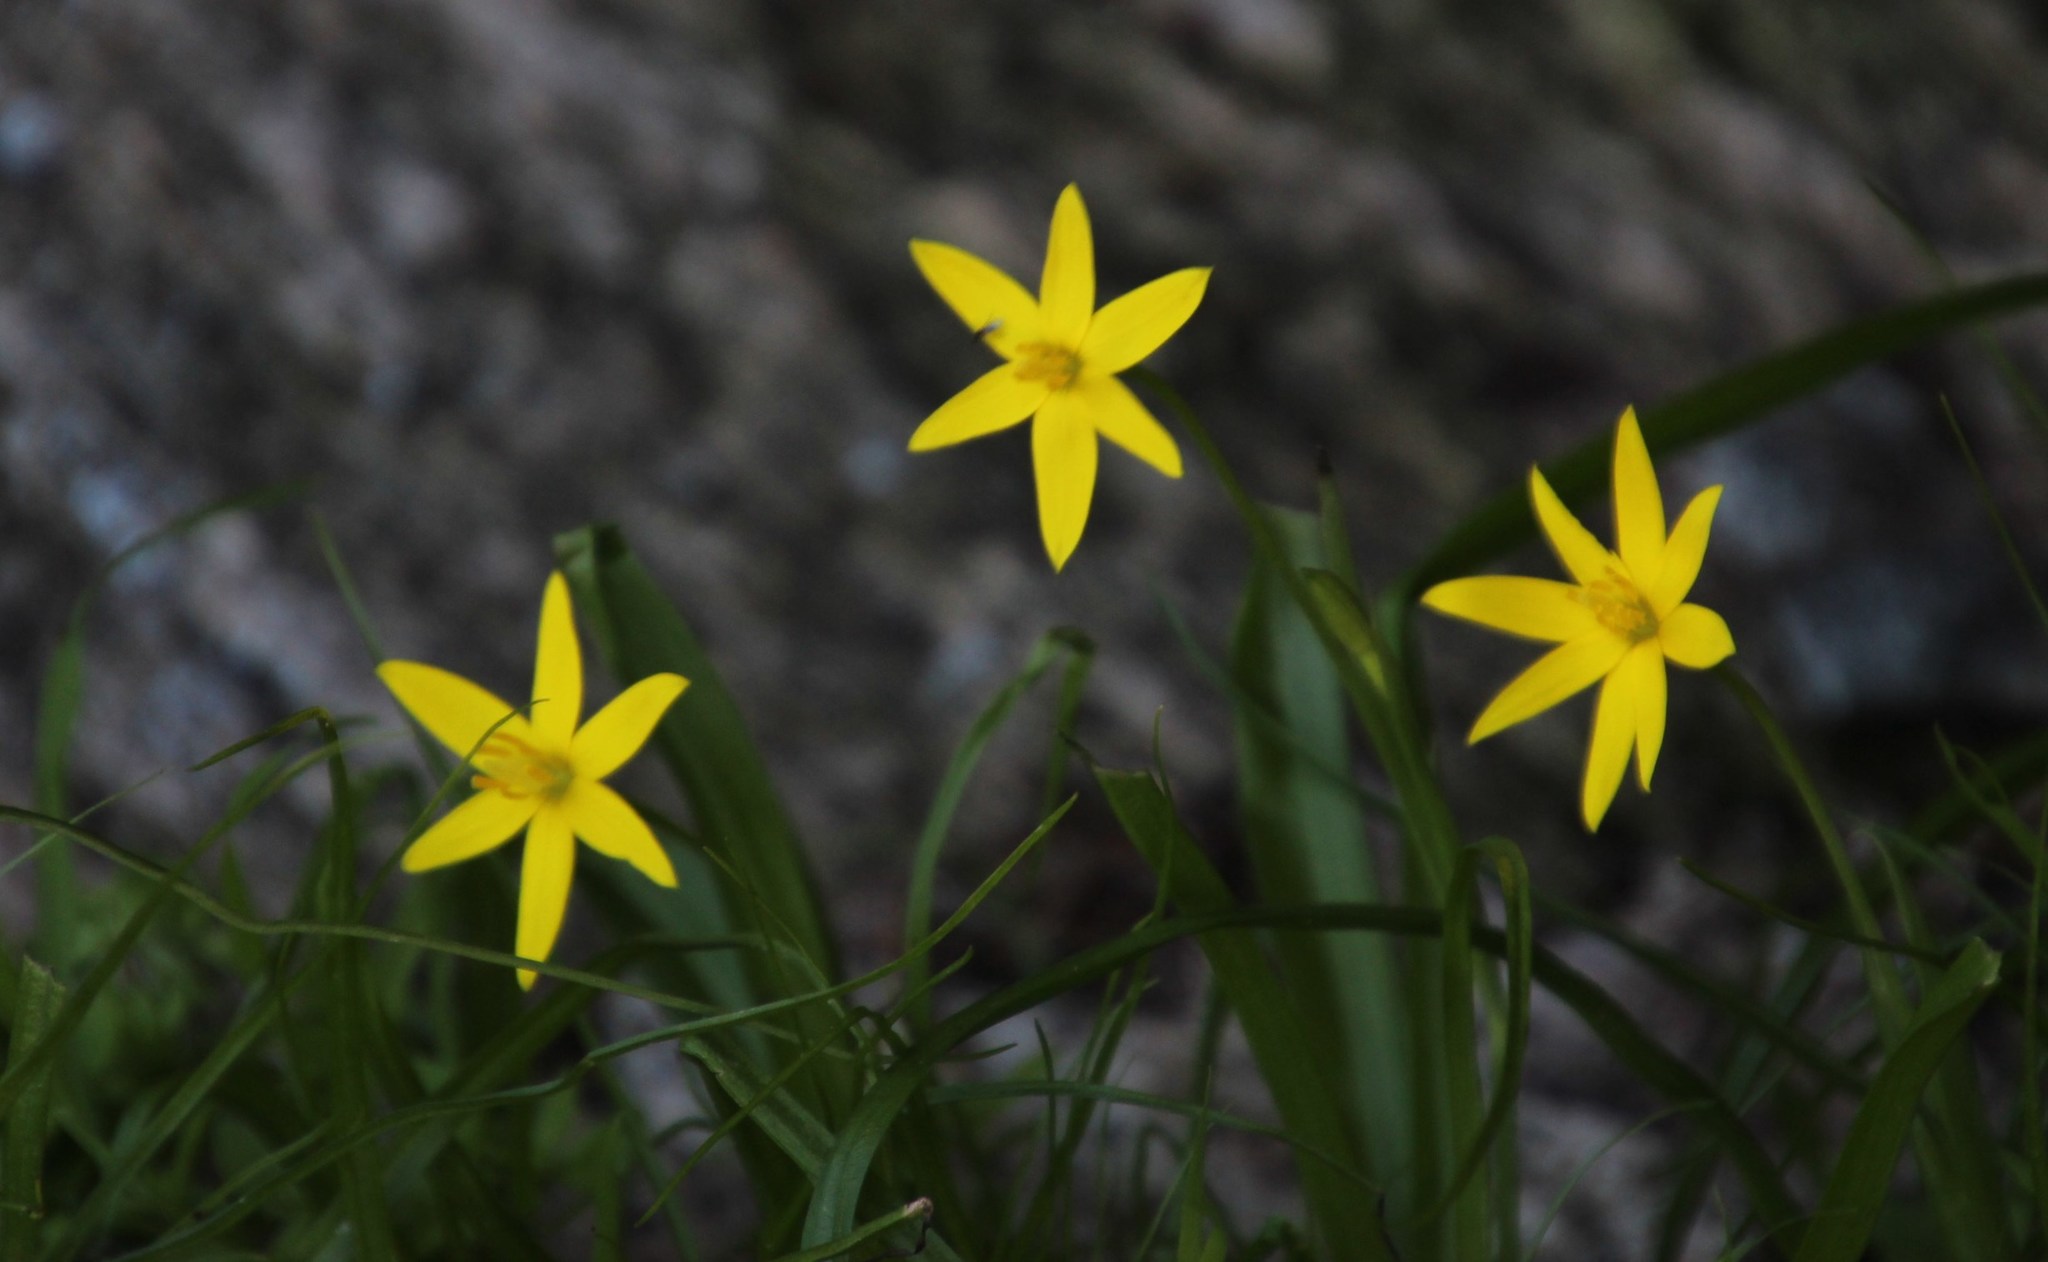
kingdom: Plantae
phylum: Tracheophyta
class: Liliopsida
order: Asparagales
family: Hypoxidaceae
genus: Pauridia
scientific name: Pauridia scullyi
